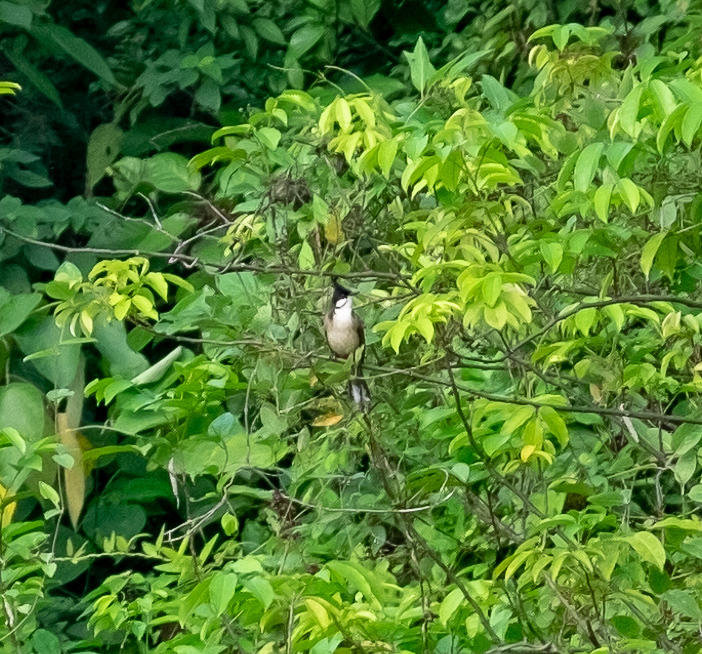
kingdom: Animalia
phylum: Chordata
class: Aves
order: Passeriformes
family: Pycnonotidae
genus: Pycnonotus
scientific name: Pycnonotus jocosus
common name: Red-whiskered bulbul
